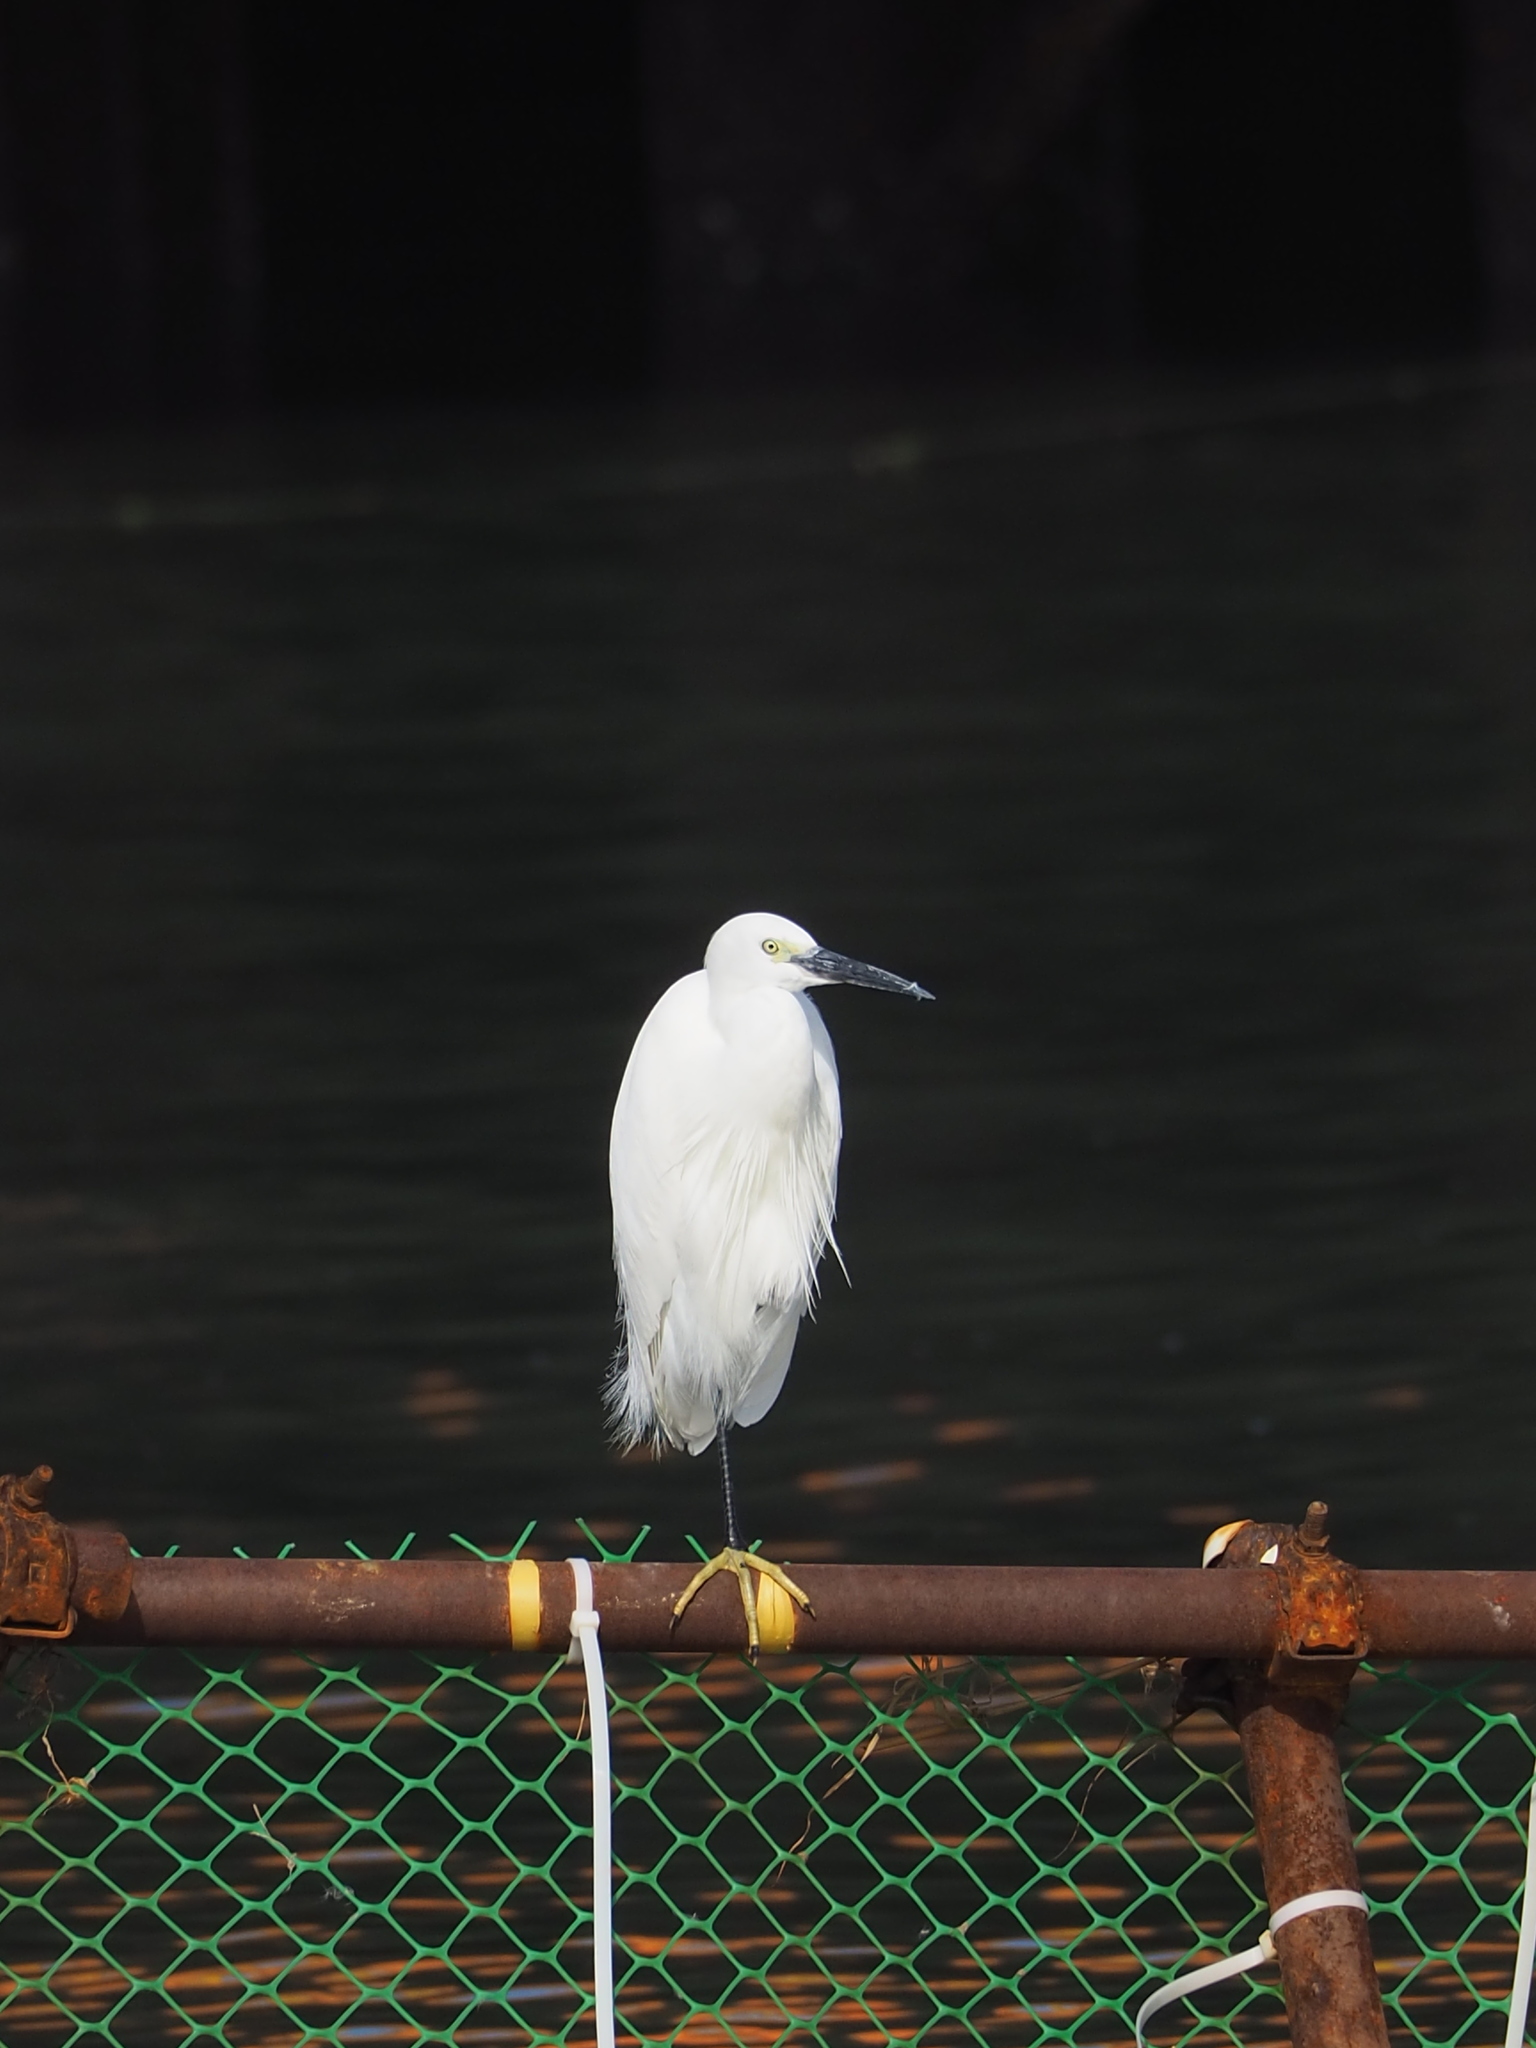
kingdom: Animalia
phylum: Chordata
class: Aves
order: Pelecaniformes
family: Ardeidae
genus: Egretta
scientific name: Egretta garzetta
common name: Little egret
